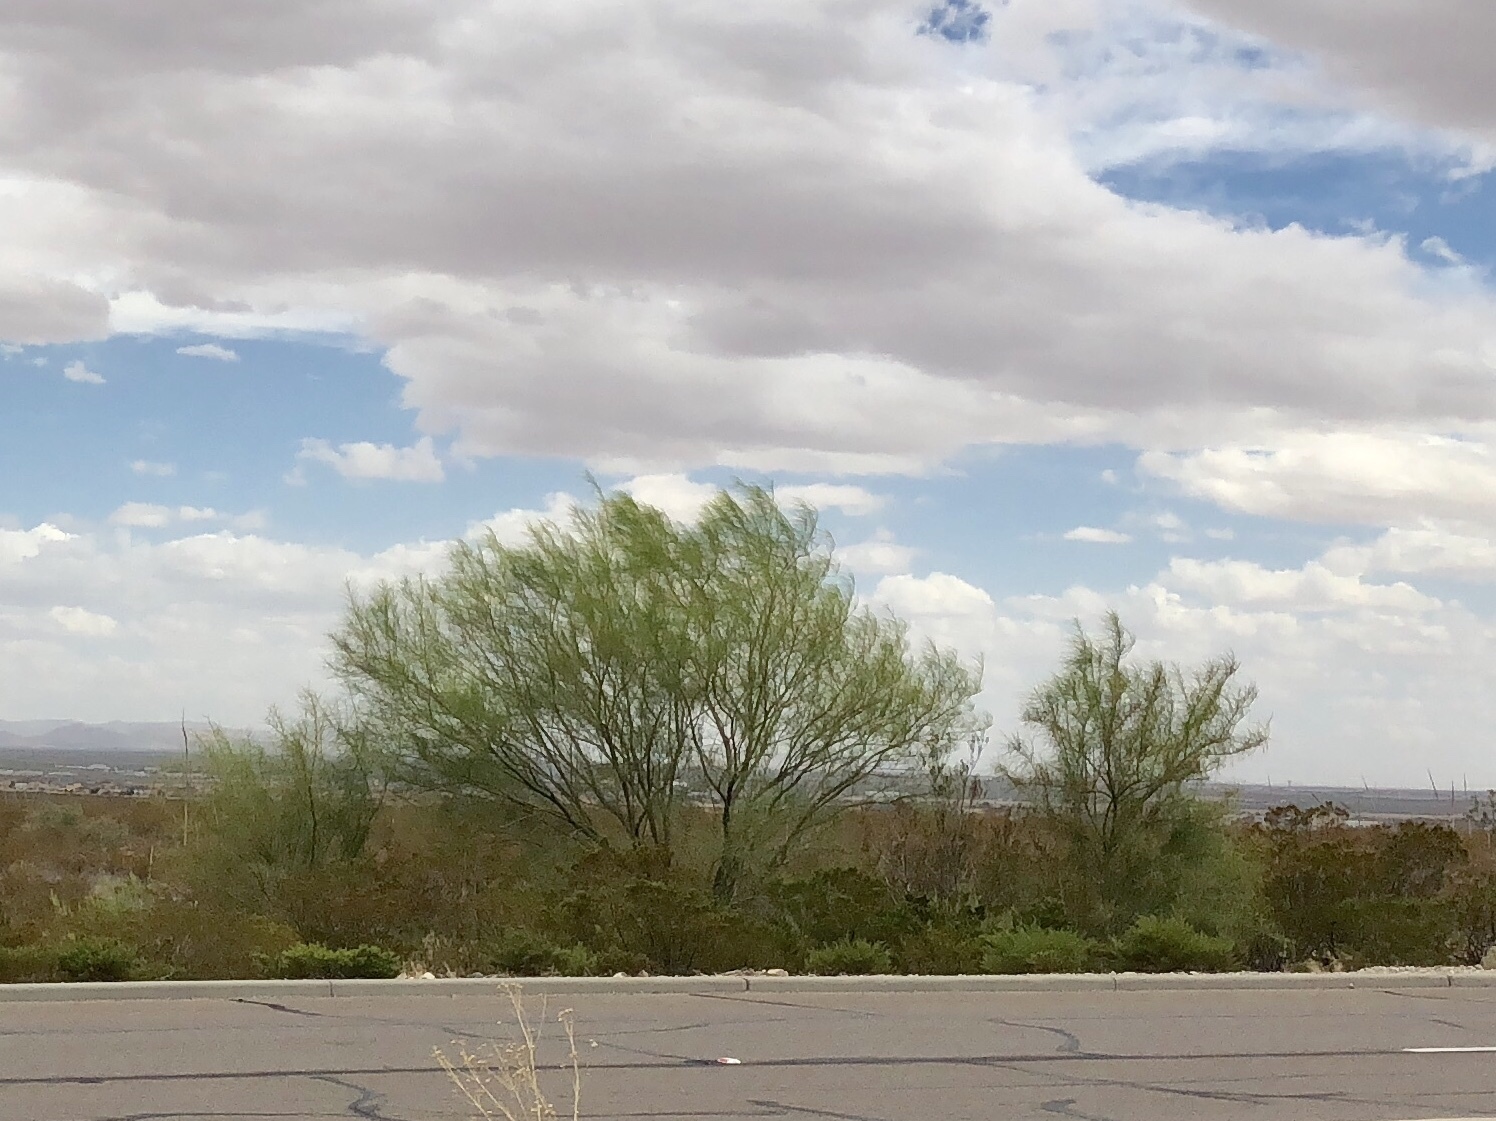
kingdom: Plantae
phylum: Tracheophyta
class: Magnoliopsida
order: Fabales
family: Fabaceae
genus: Parkinsonia
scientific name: Parkinsonia aculeata
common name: Jerusalem thorn
